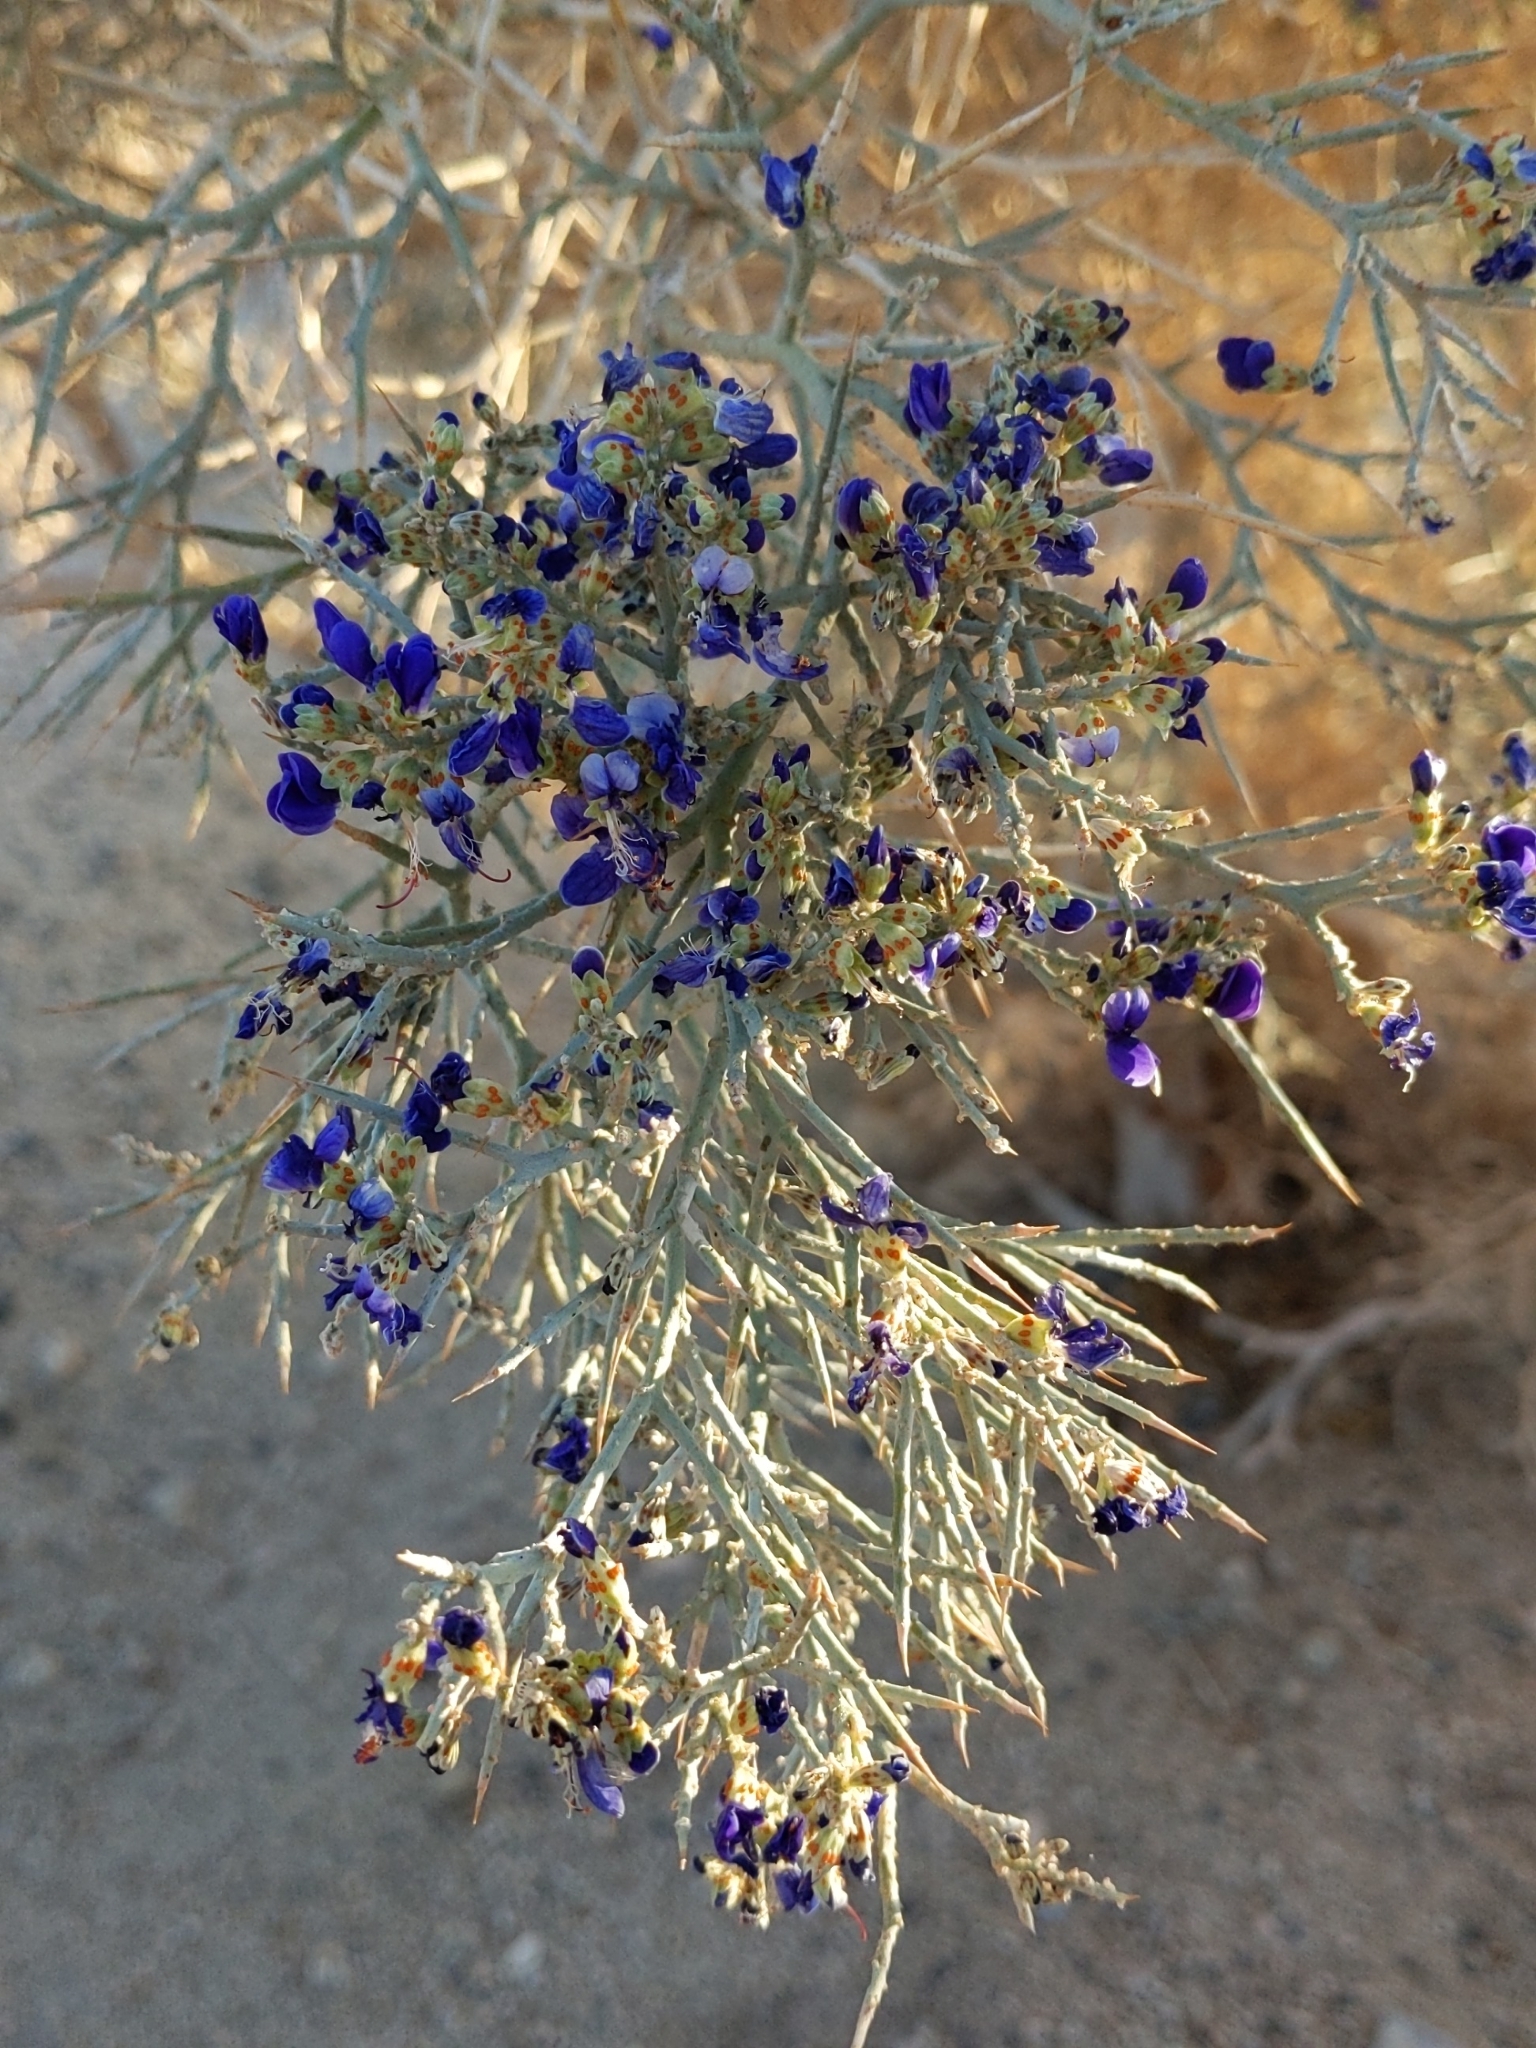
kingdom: Plantae
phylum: Tracheophyta
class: Magnoliopsida
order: Fabales
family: Fabaceae
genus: Psorothamnus
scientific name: Psorothamnus spinosus
